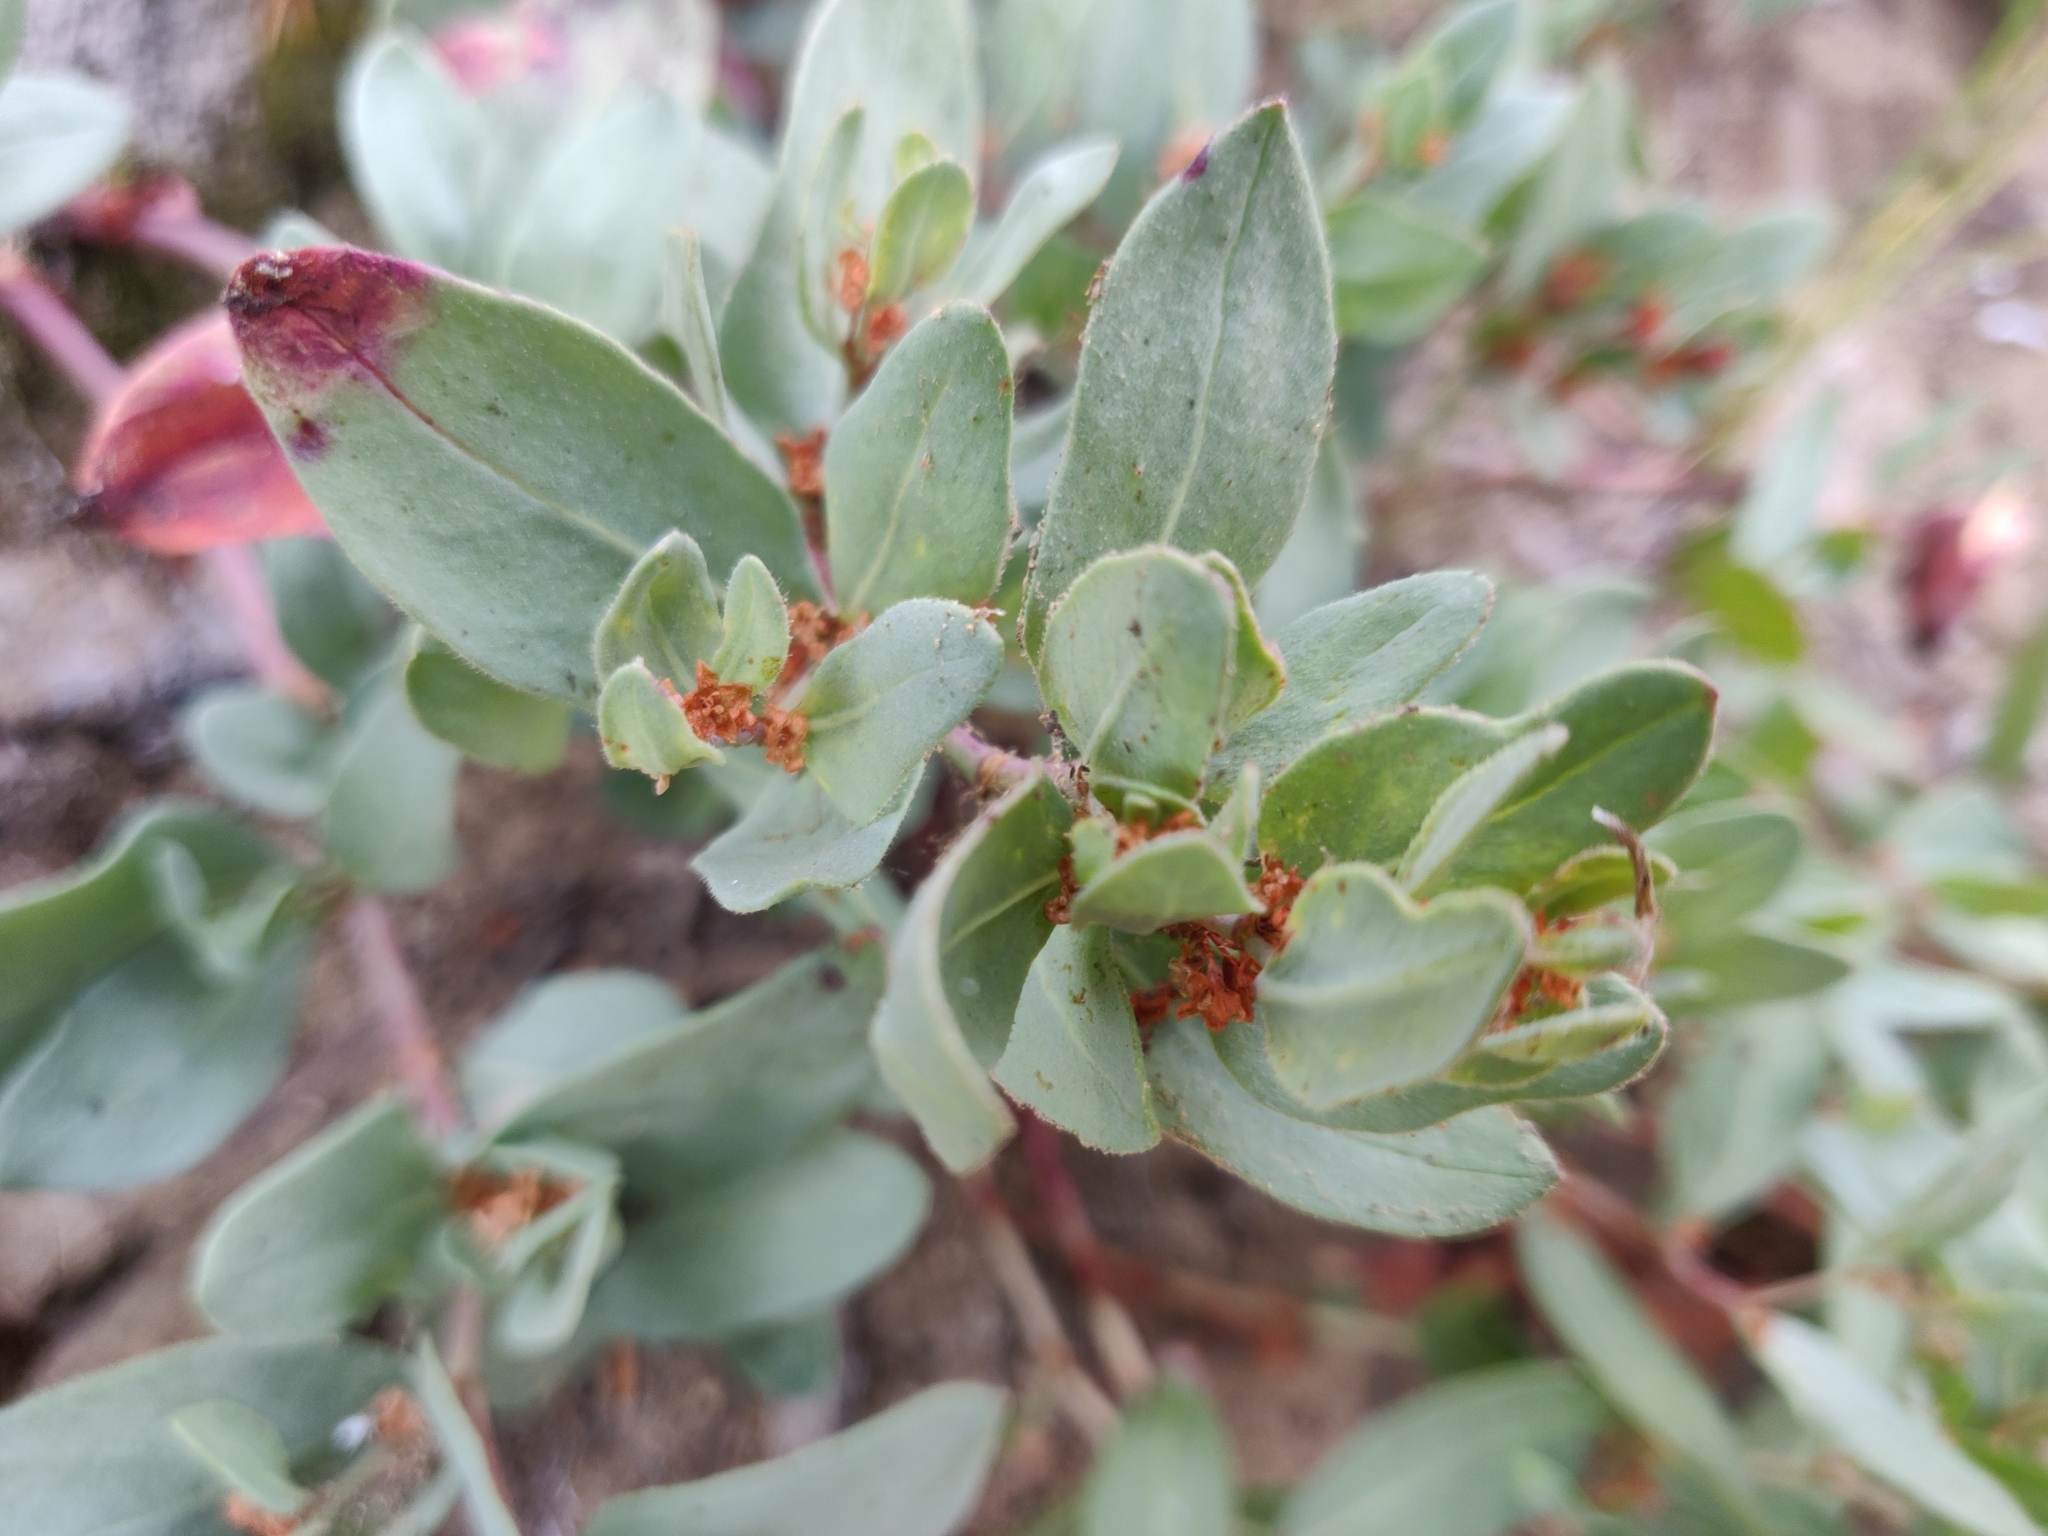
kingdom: Plantae
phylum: Tracheophyta
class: Magnoliopsida
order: Caryophyllales
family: Polygonaceae
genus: Koenigia
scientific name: Koenigia davisiae
